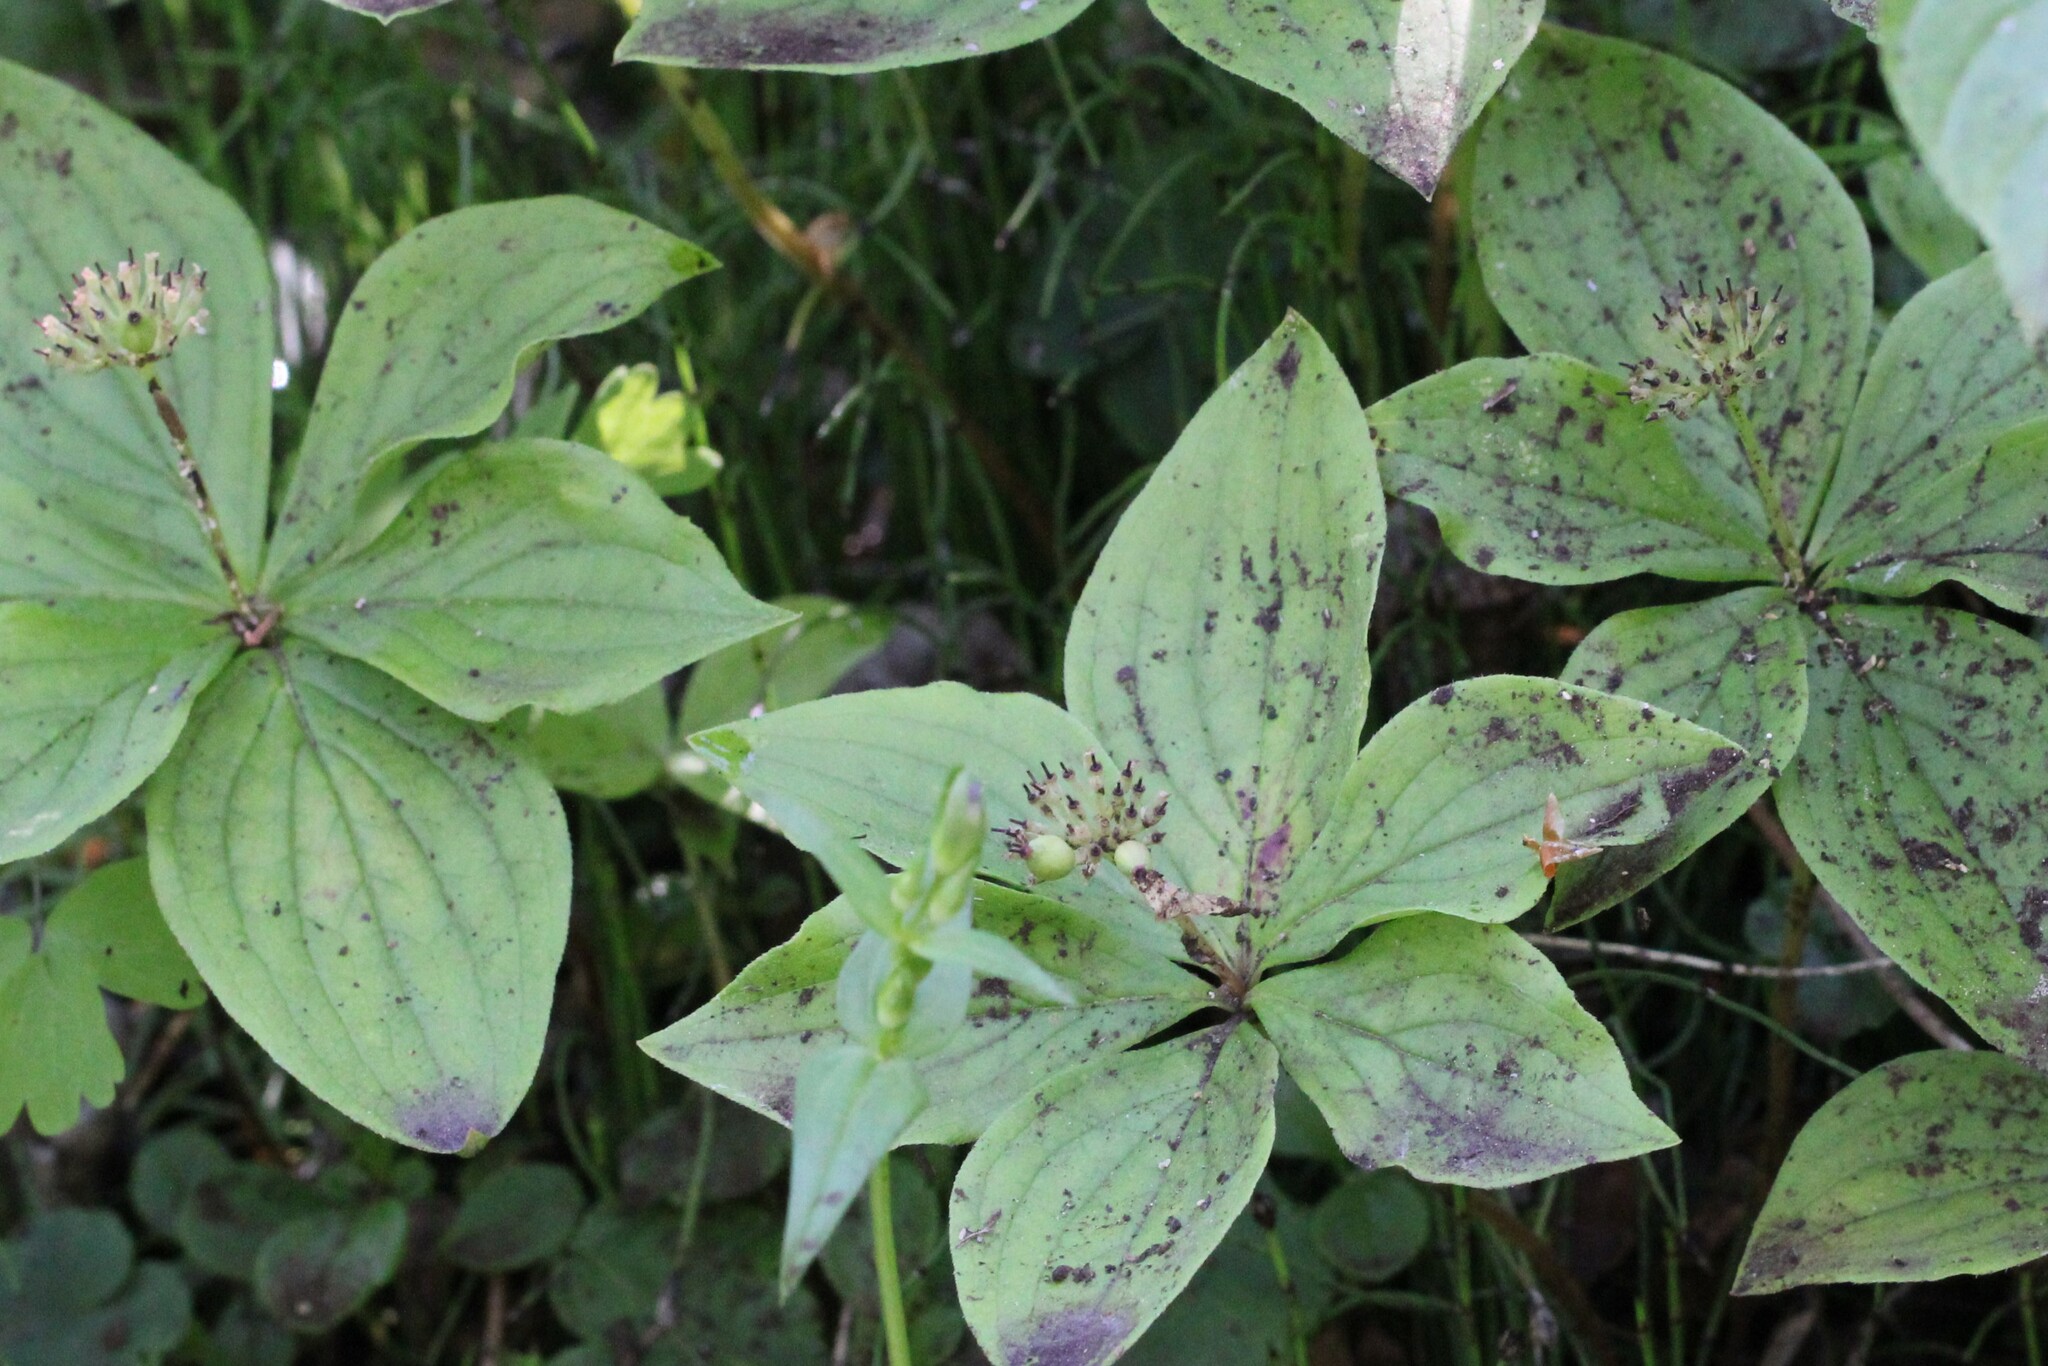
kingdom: Plantae
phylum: Tracheophyta
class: Magnoliopsida
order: Cornales
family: Cornaceae
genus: Cornus
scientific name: Cornus canadensis
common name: Creeping dogwood
